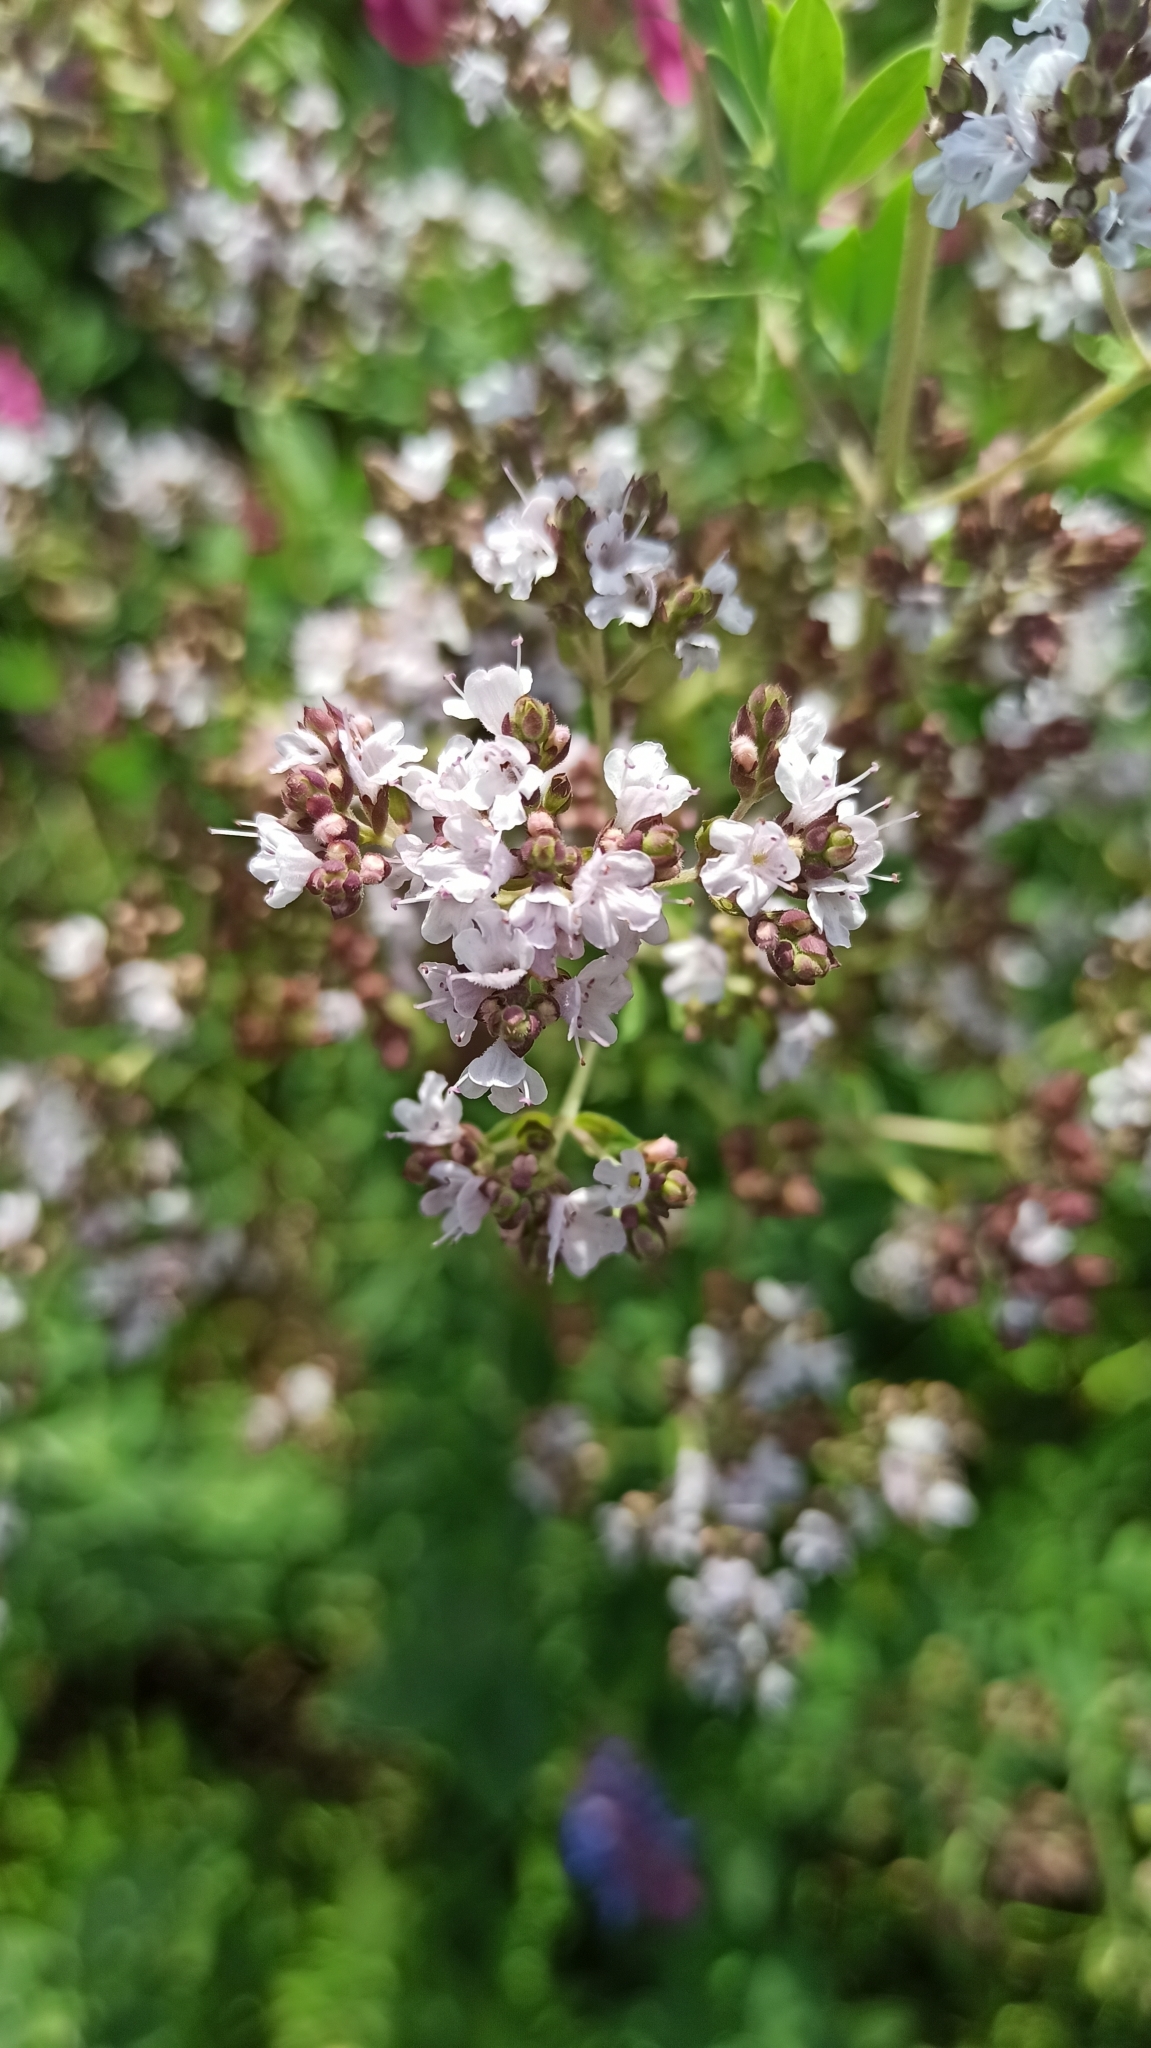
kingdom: Plantae
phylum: Tracheophyta
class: Magnoliopsida
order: Lamiales
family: Lamiaceae
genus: Origanum
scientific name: Origanum vulgare
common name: Wild marjoram
